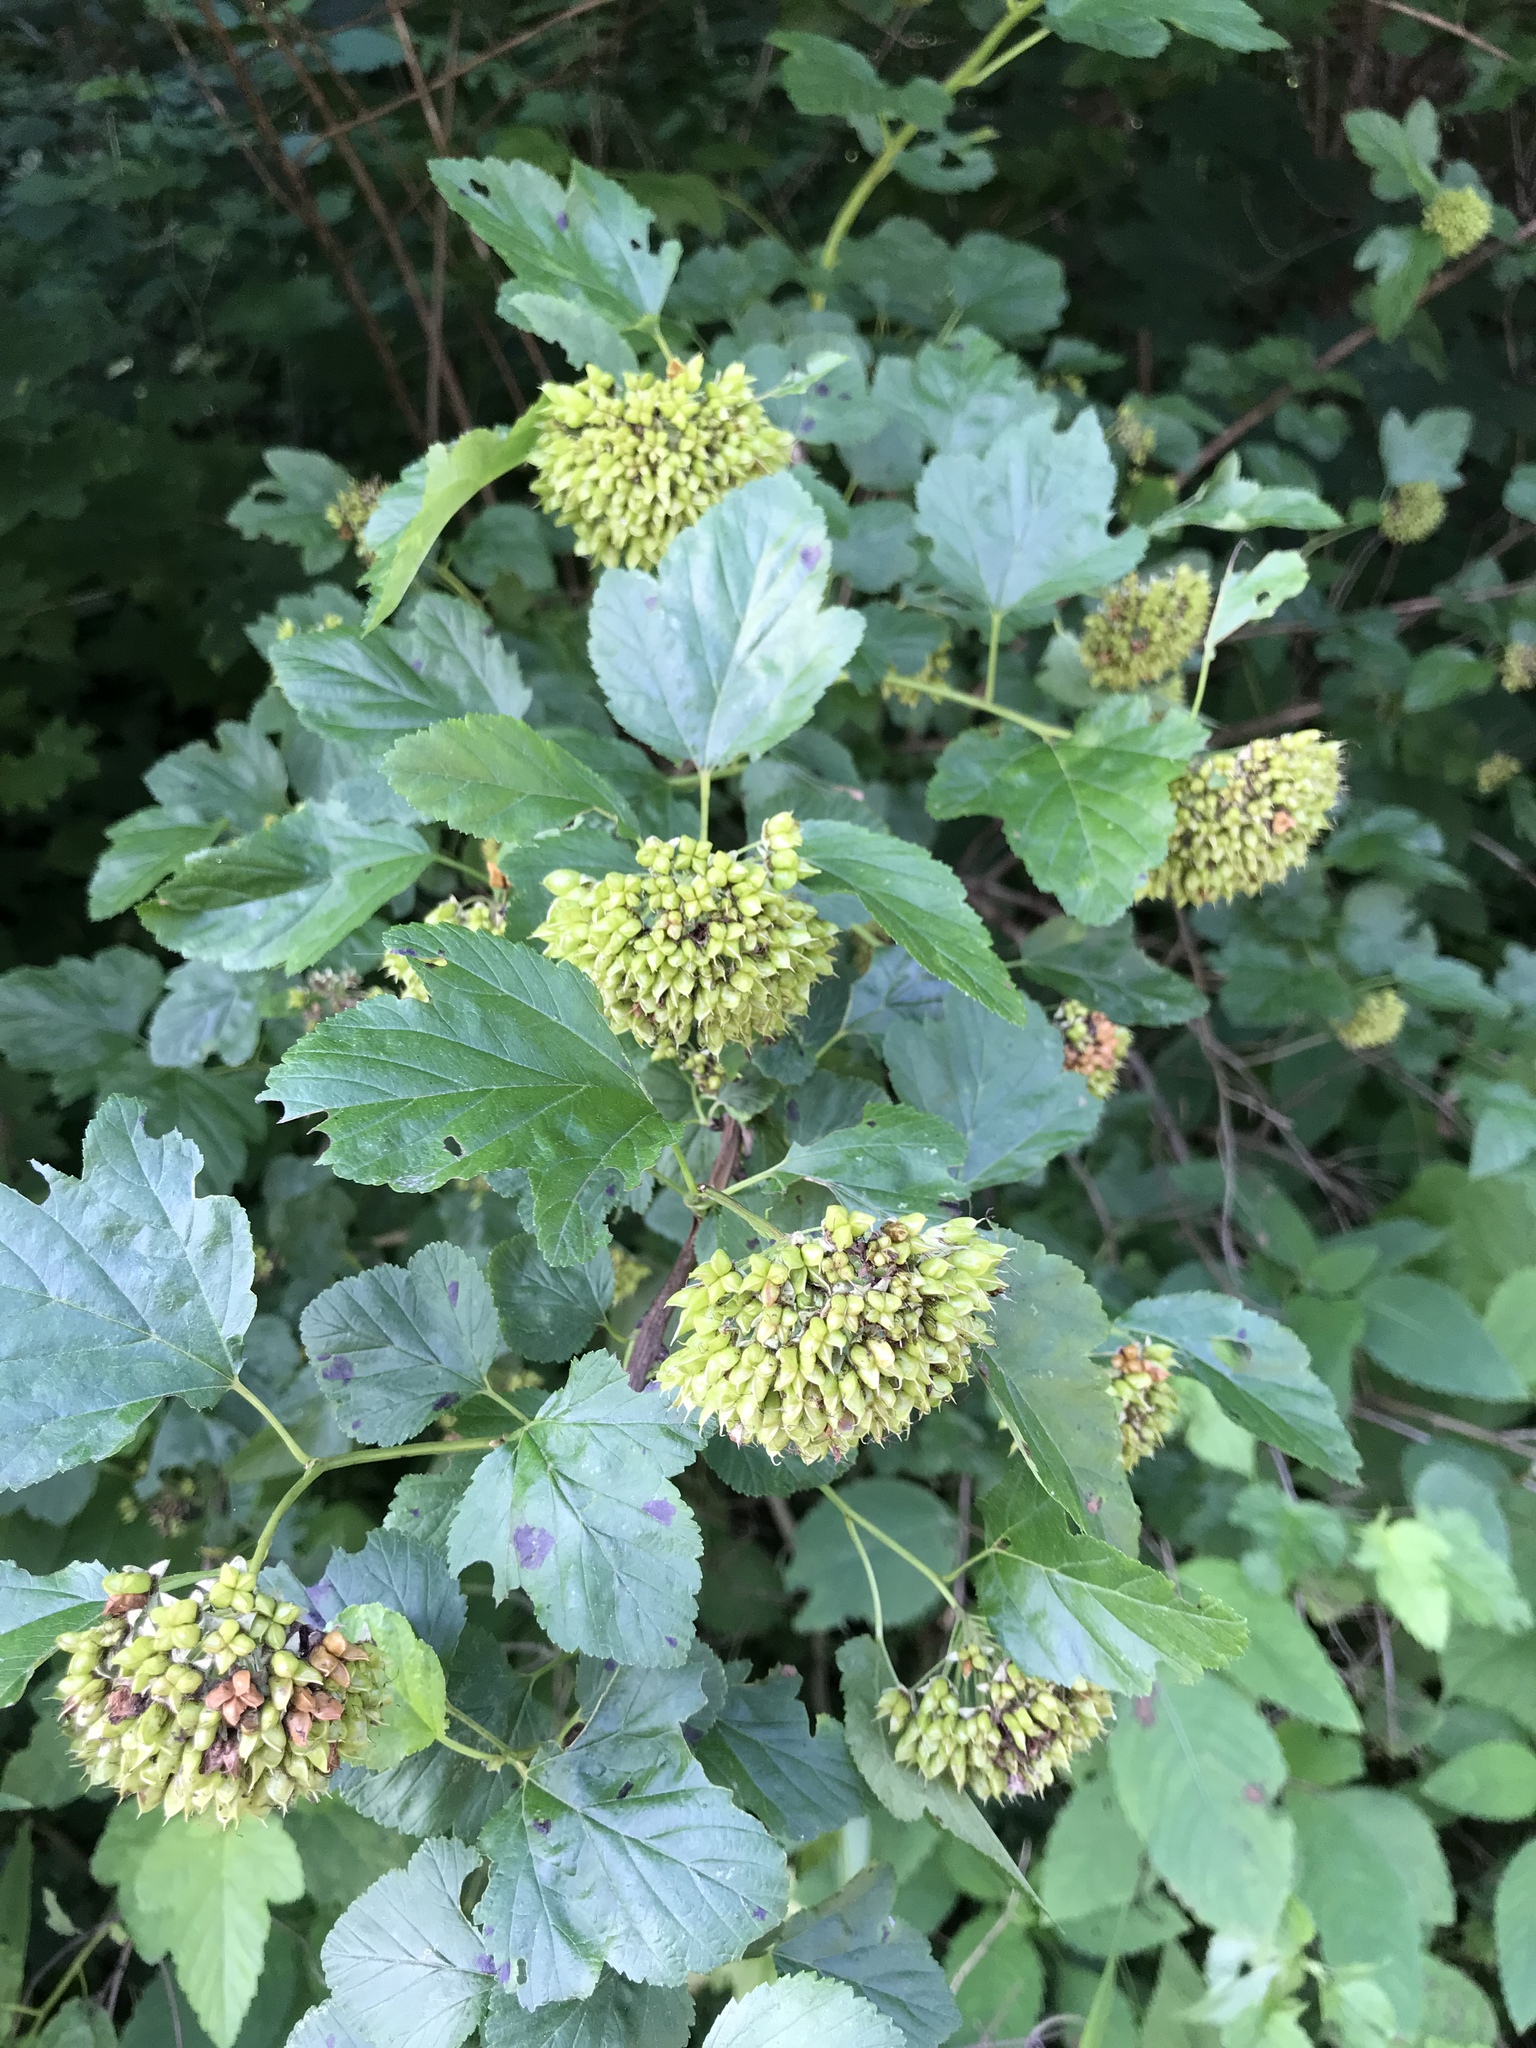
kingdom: Plantae
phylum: Tracheophyta
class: Magnoliopsida
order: Rosales
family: Rosaceae
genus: Physocarpus
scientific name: Physocarpus opulifolius
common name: Ninebark
